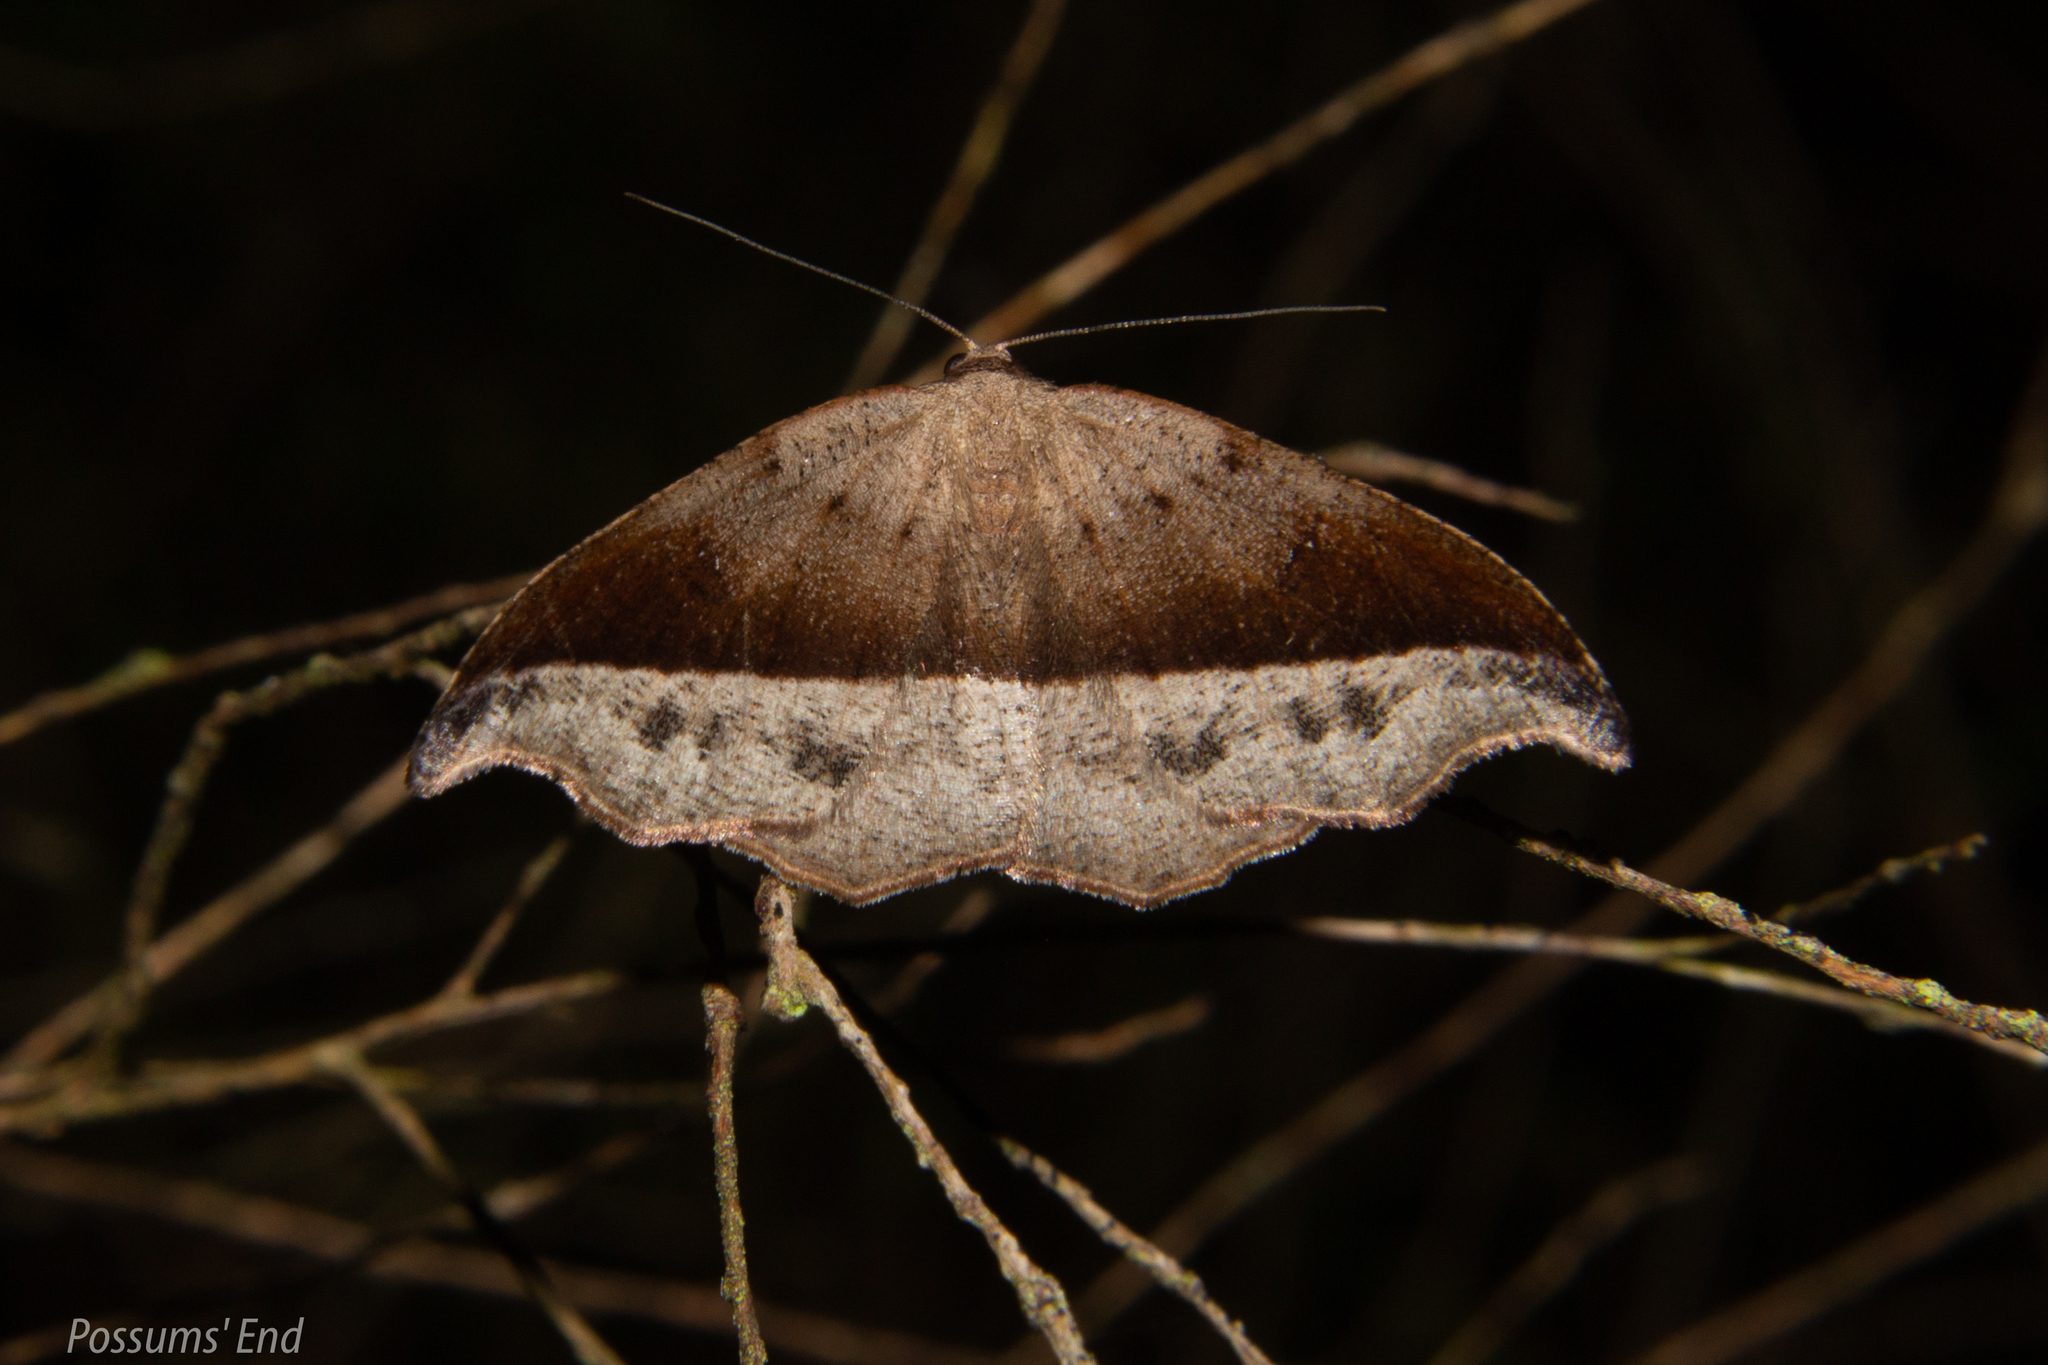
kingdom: Animalia
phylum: Arthropoda
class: Insecta
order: Lepidoptera
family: Geometridae
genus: Sarisa
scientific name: Sarisa muriferata
